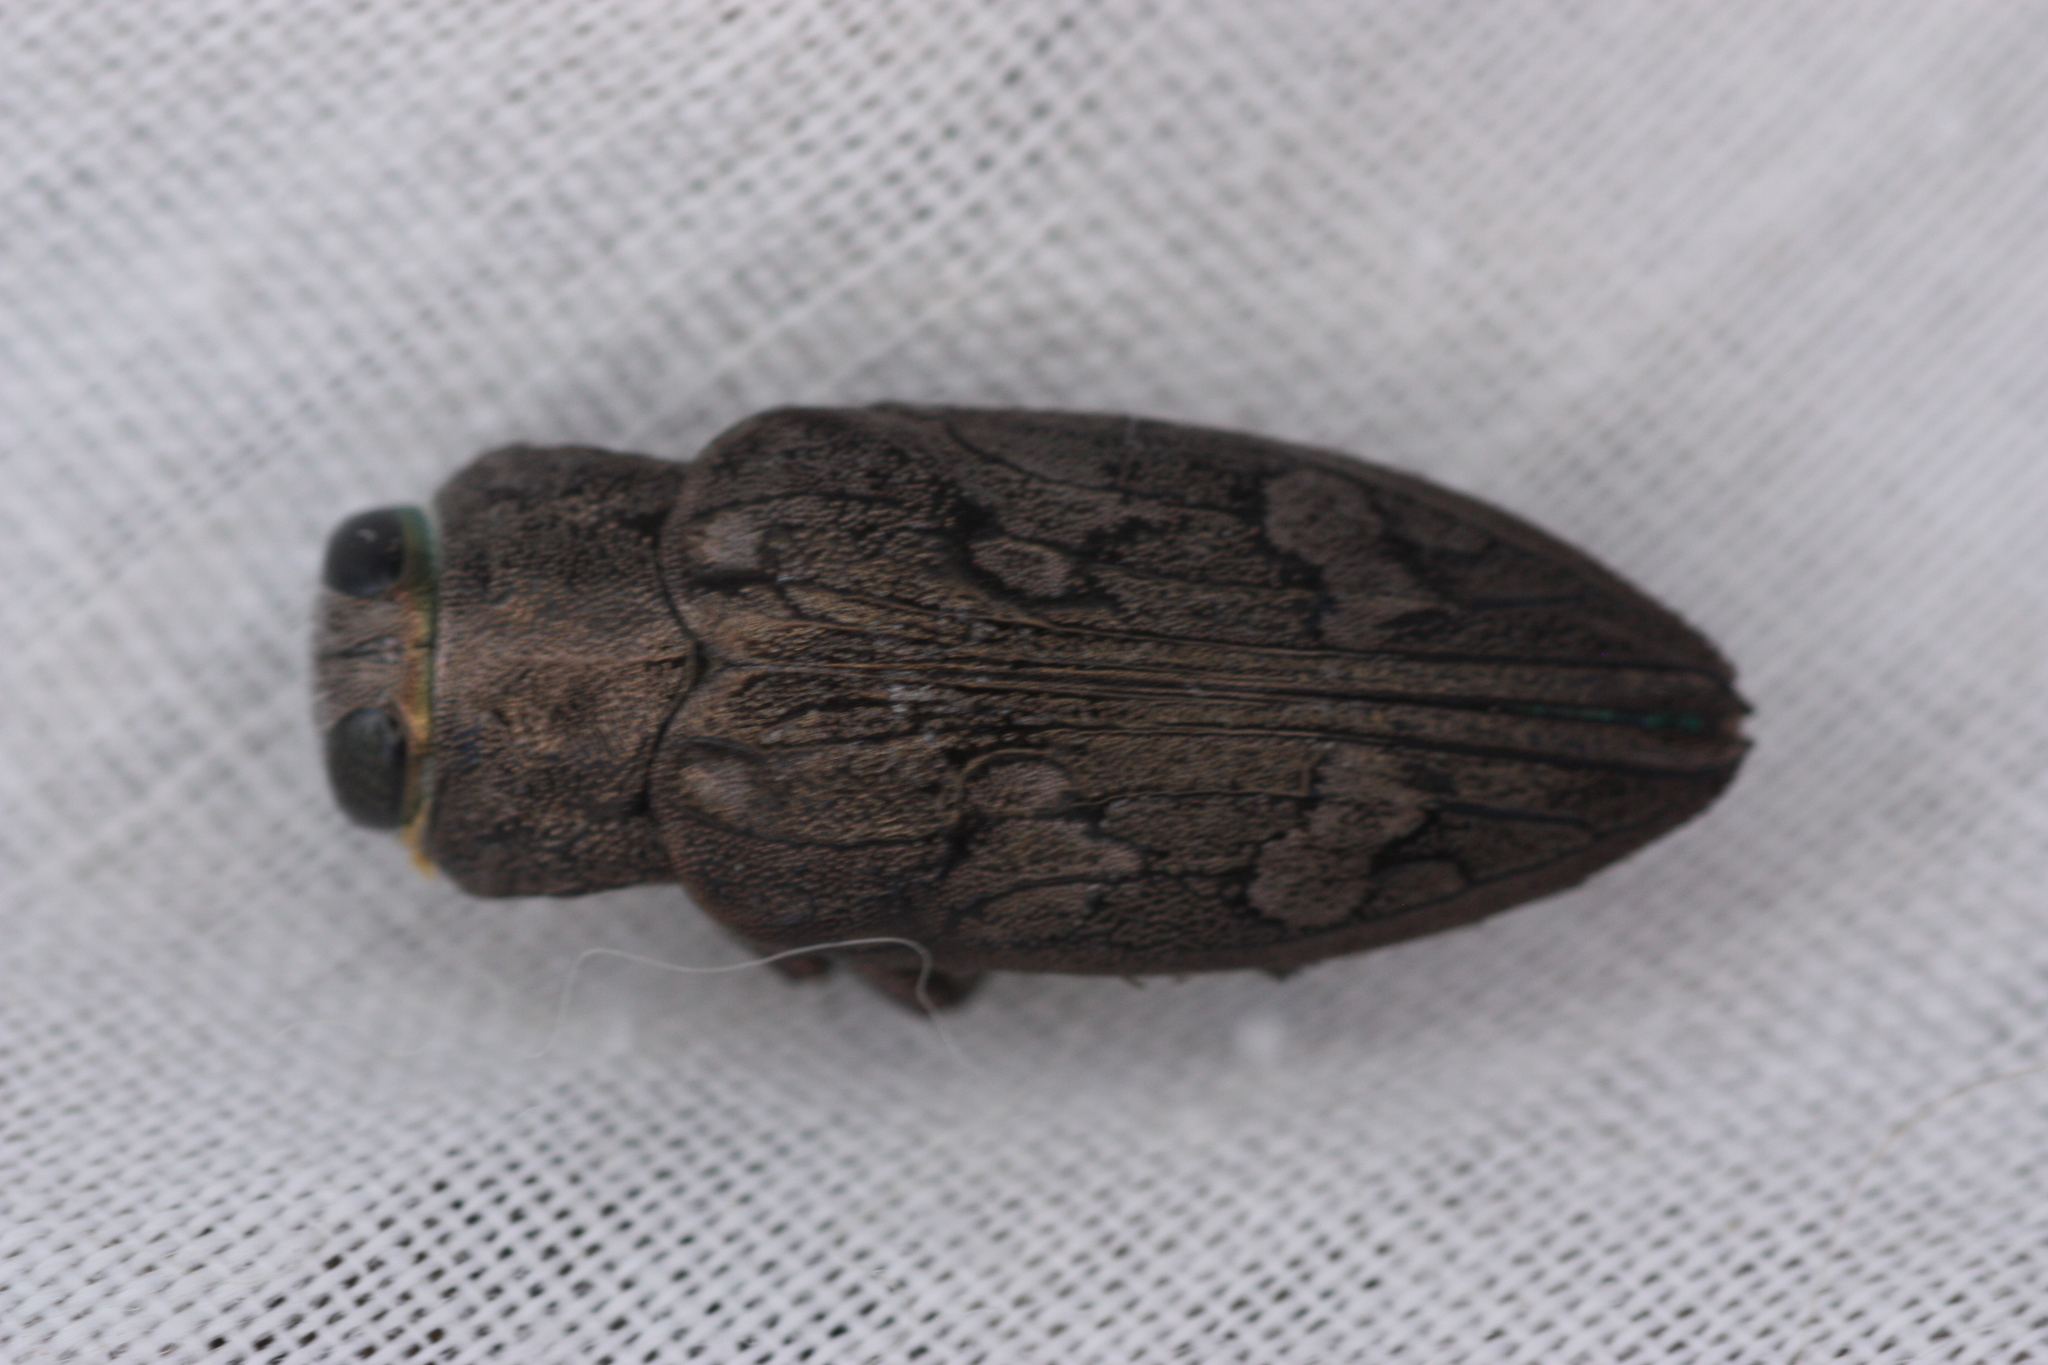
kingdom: Animalia
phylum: Arthropoda
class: Insecta
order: Coleoptera
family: Buprestidae
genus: Chrysobothris
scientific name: Chrysobothris bispinosa
